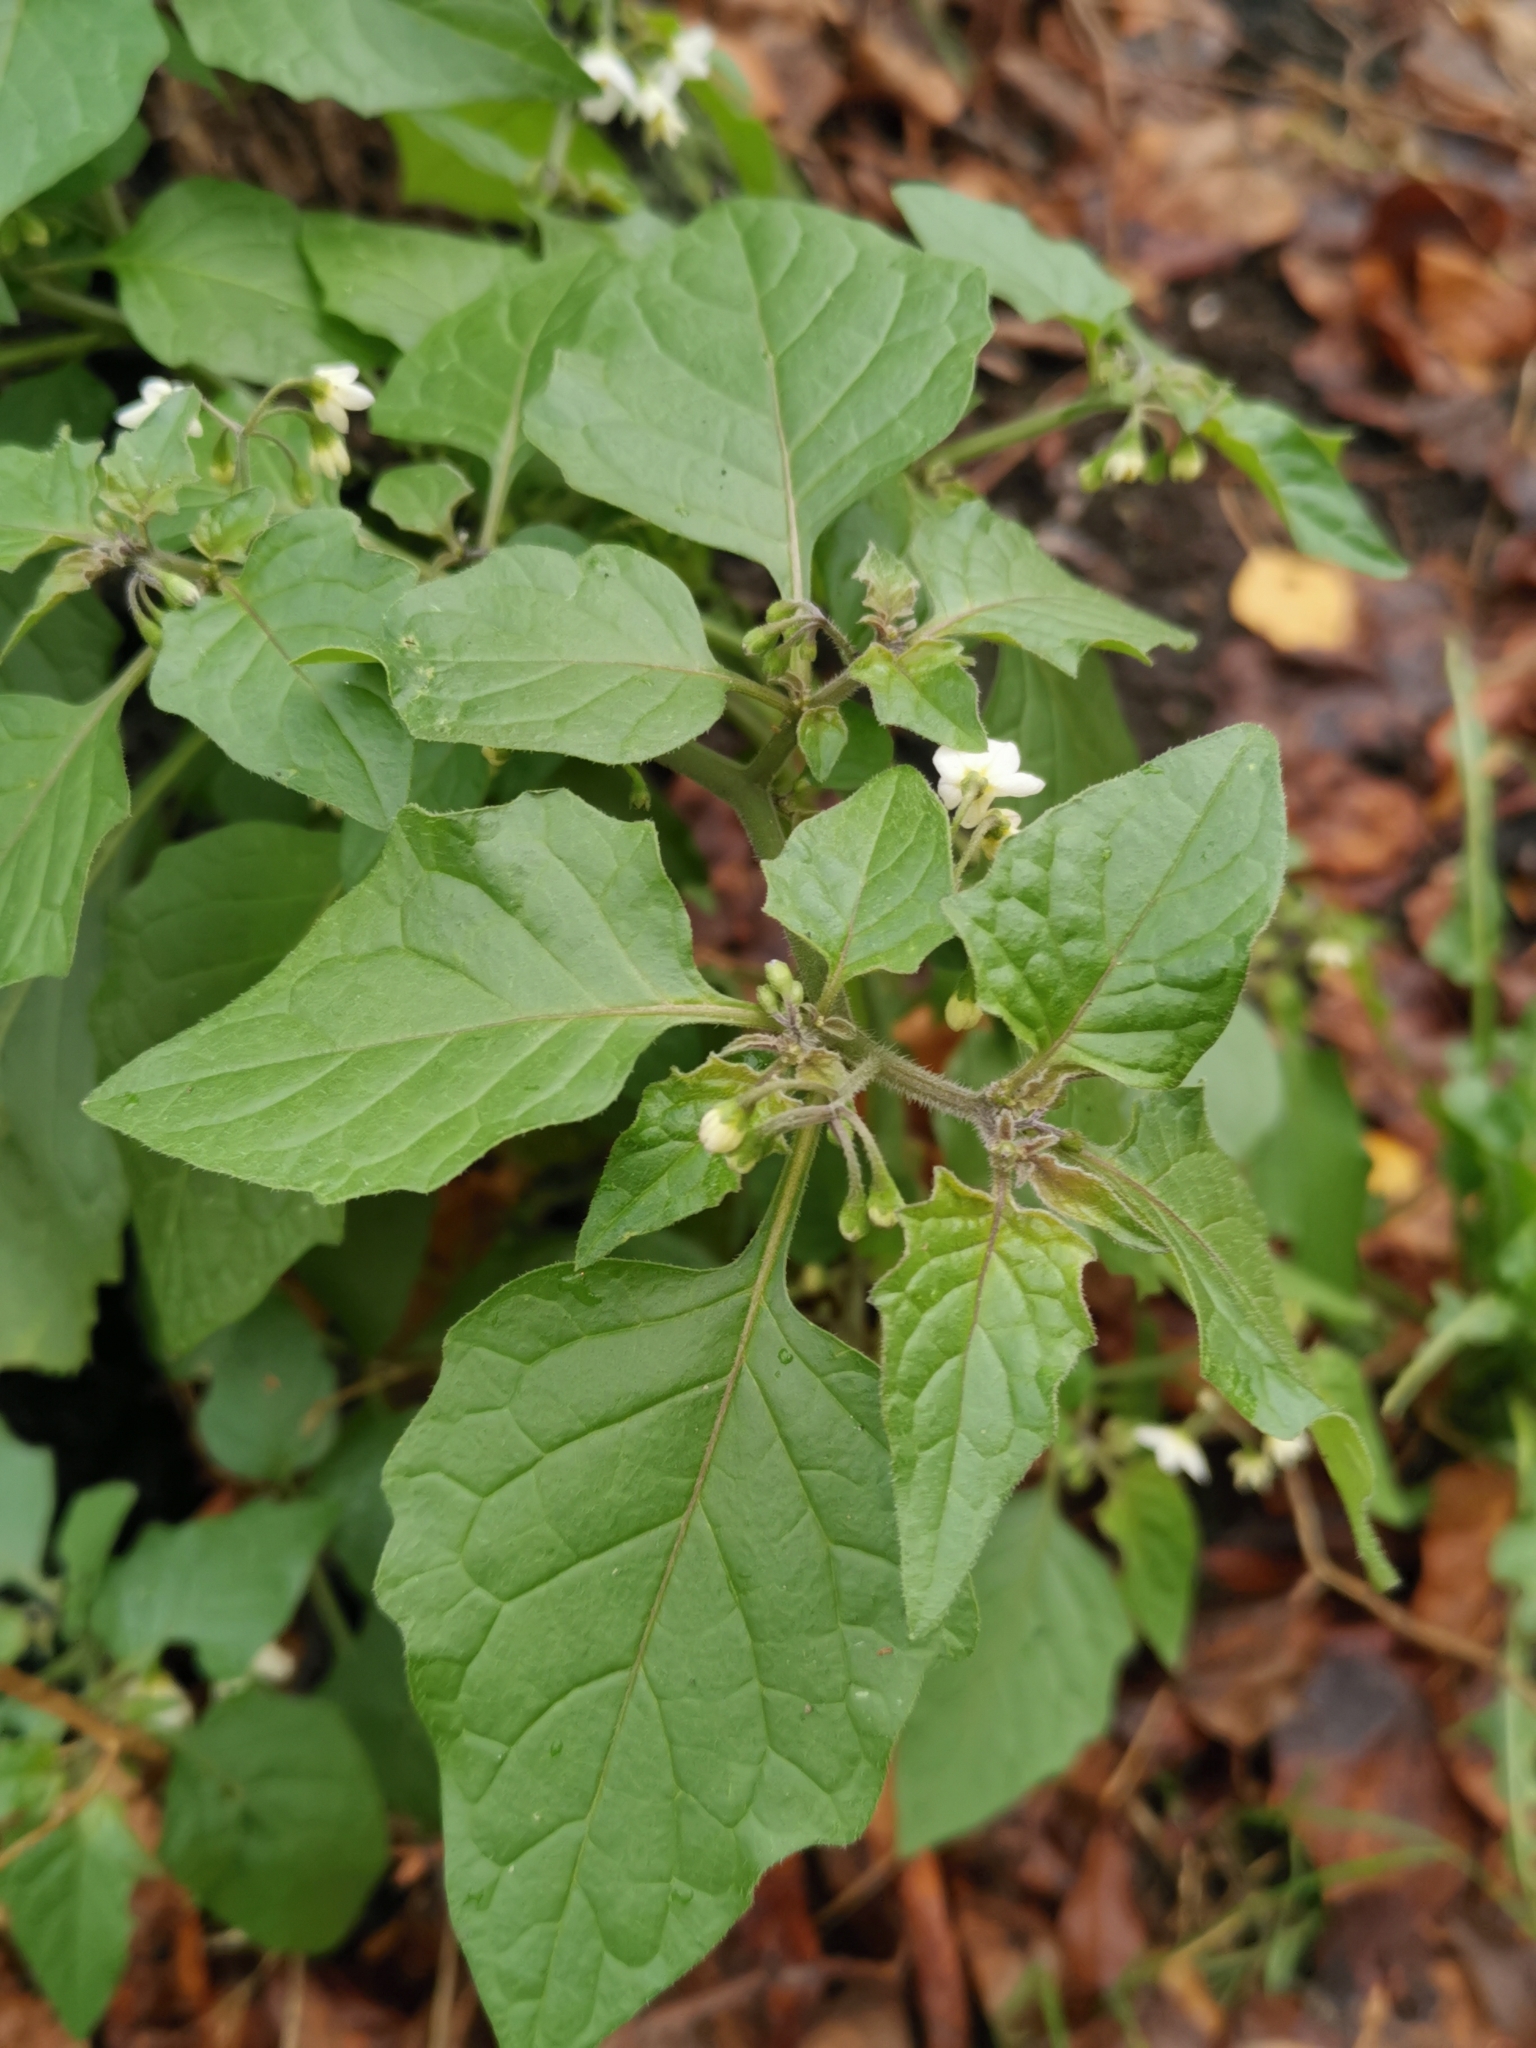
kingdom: Plantae
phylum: Tracheophyta
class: Magnoliopsida
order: Solanales
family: Solanaceae
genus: Solanum
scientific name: Solanum nigrum
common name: Black nightshade
